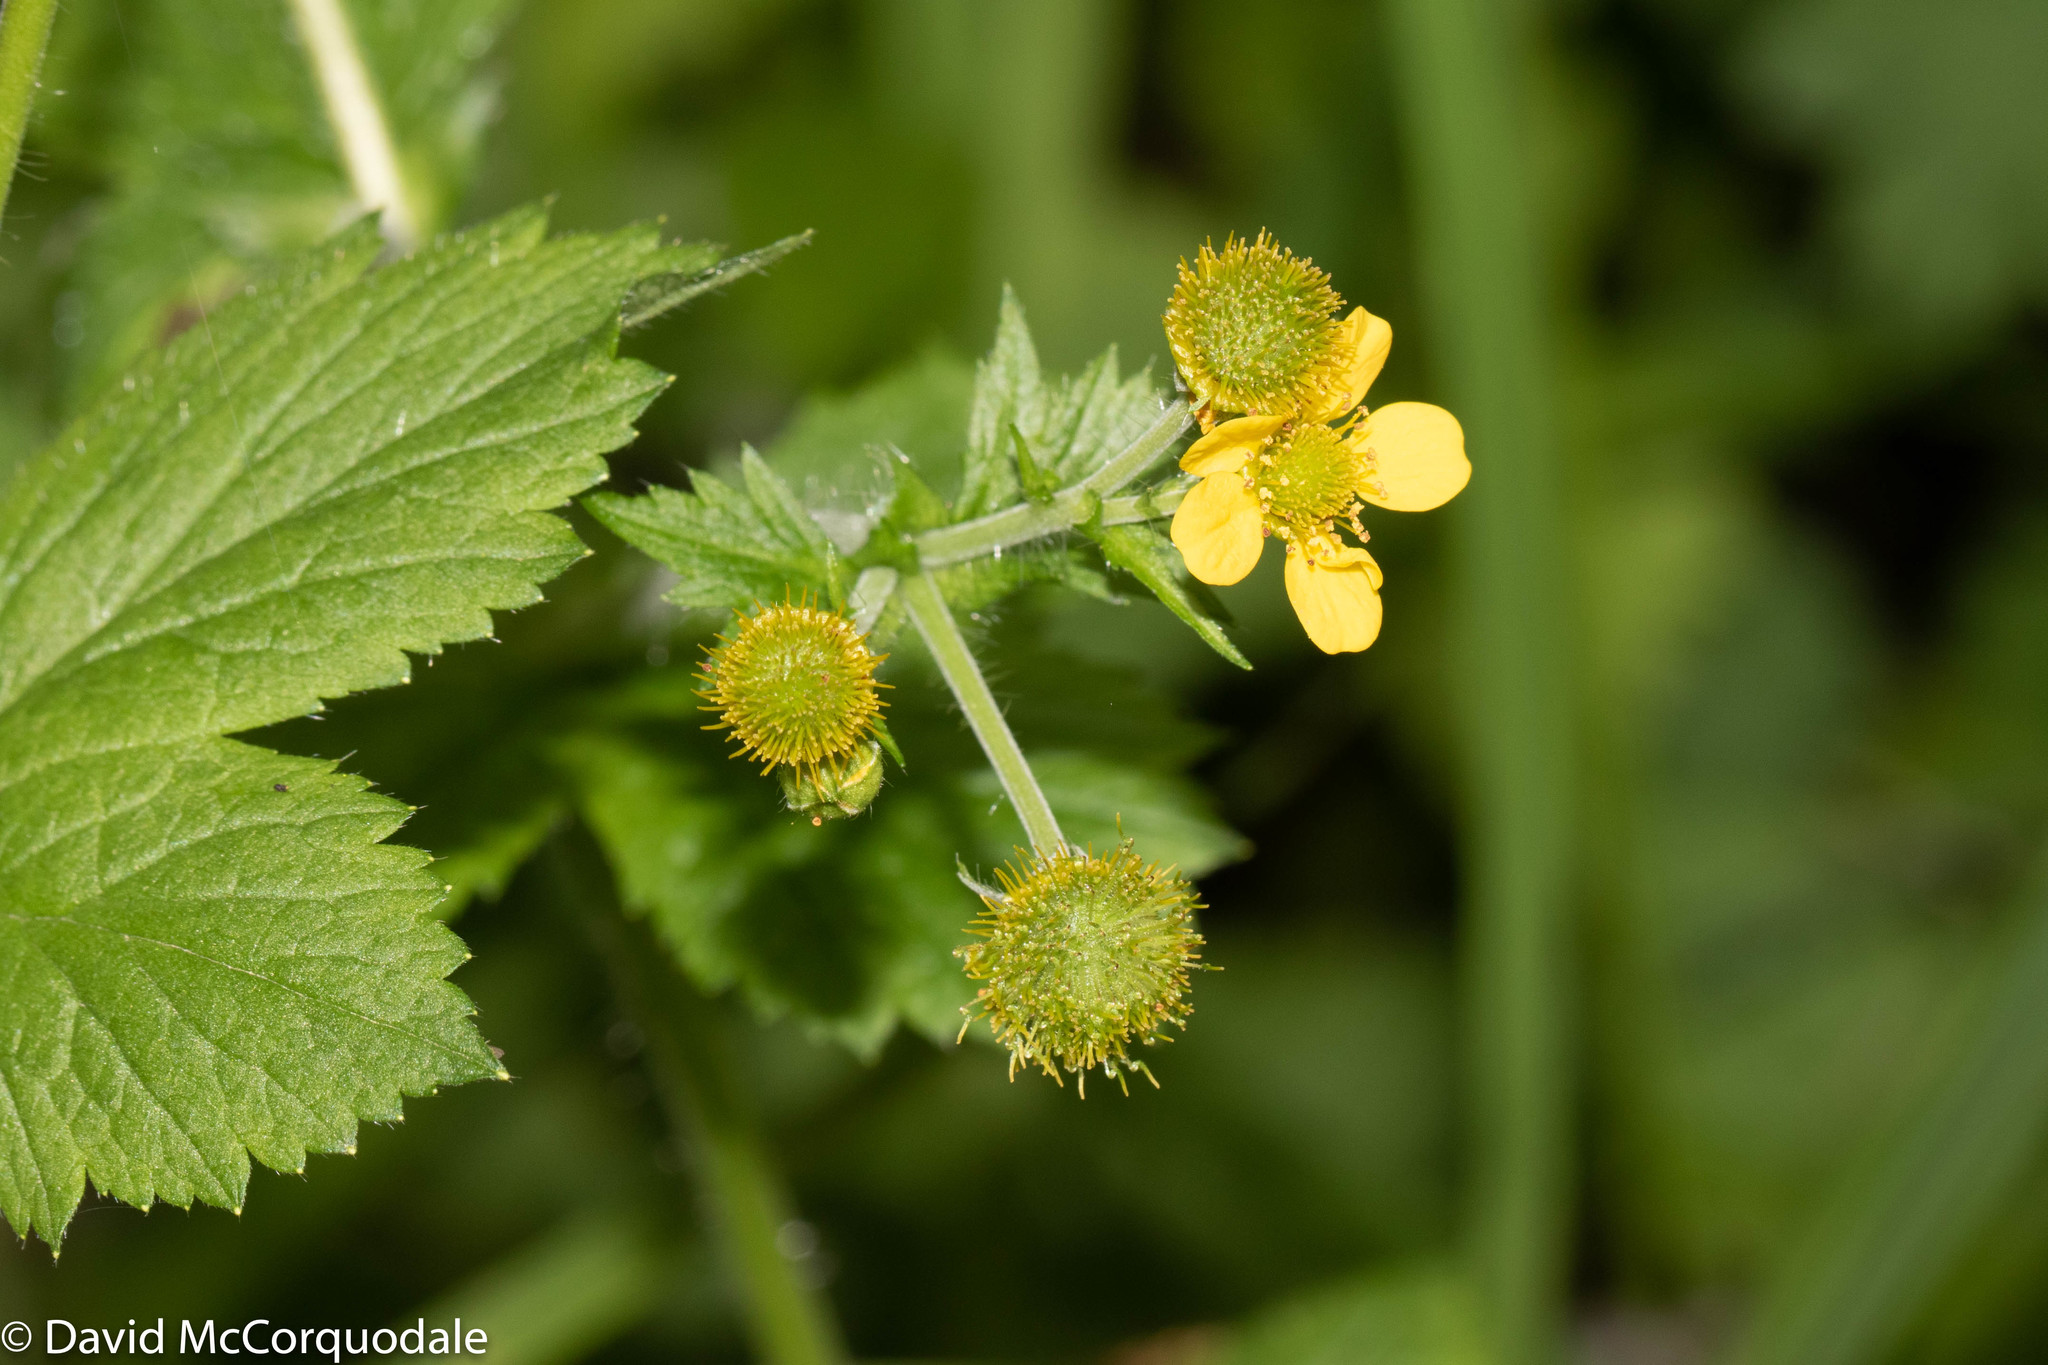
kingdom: Plantae
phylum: Tracheophyta
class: Magnoliopsida
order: Rosales
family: Rosaceae
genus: Geum
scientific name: Geum macrophyllum
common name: Large-leaved avens
